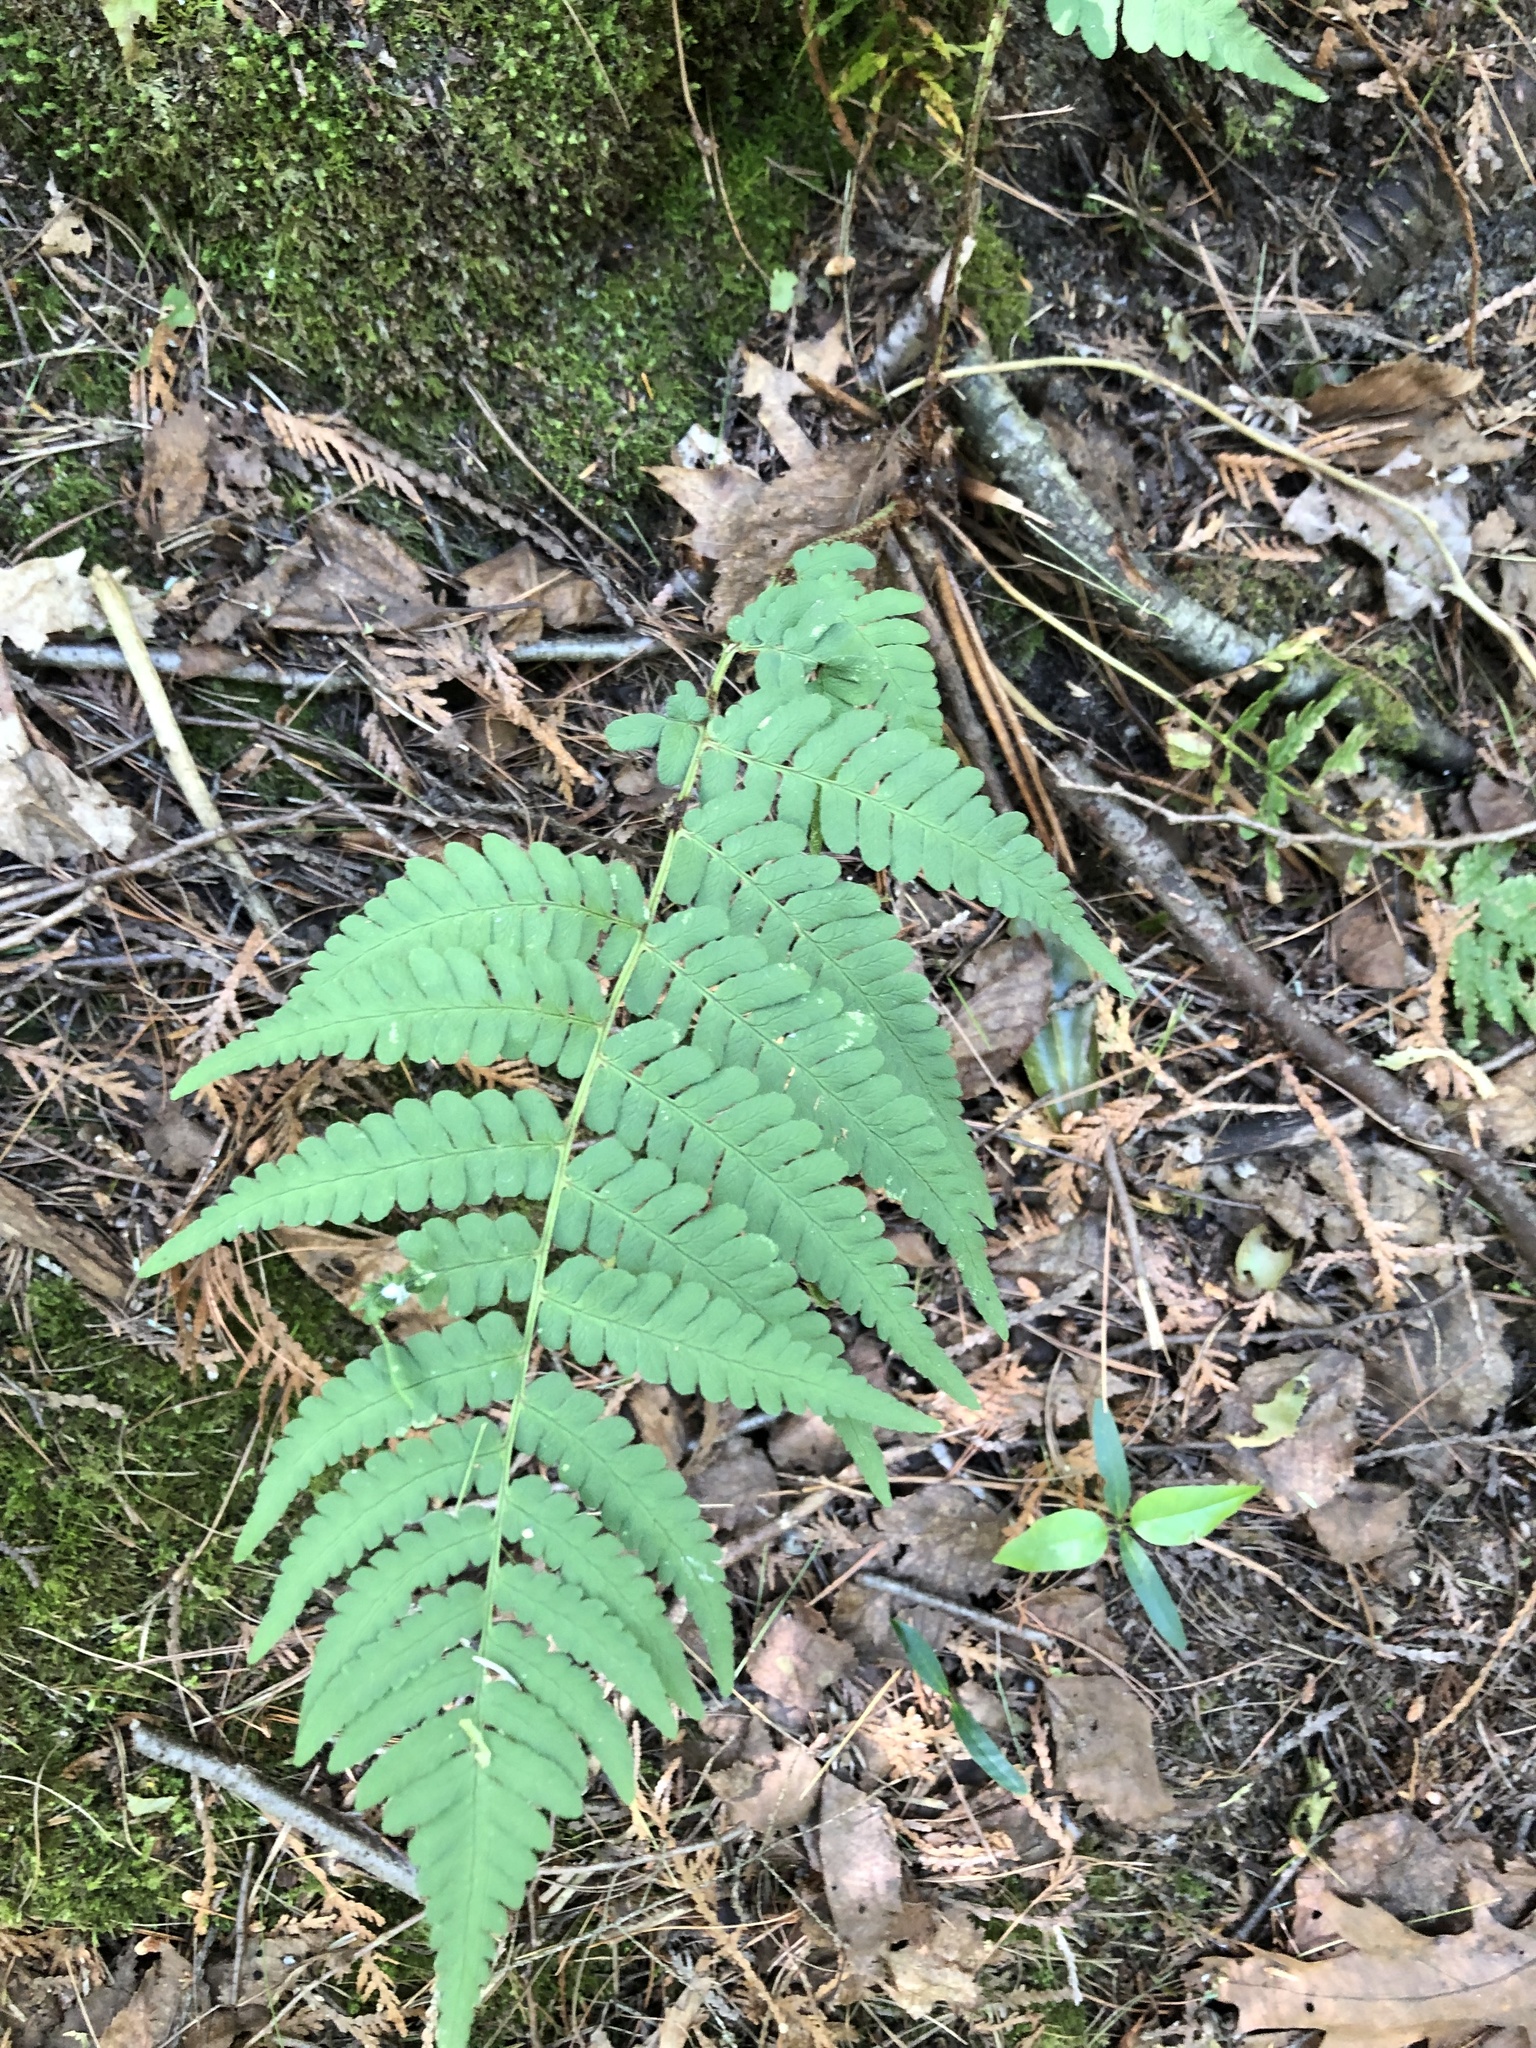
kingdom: Plantae
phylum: Tracheophyta
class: Polypodiopsida
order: Polypodiales
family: Dryopteridaceae
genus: Dryopteris
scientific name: Dryopteris marginalis
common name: Marginal wood fern
